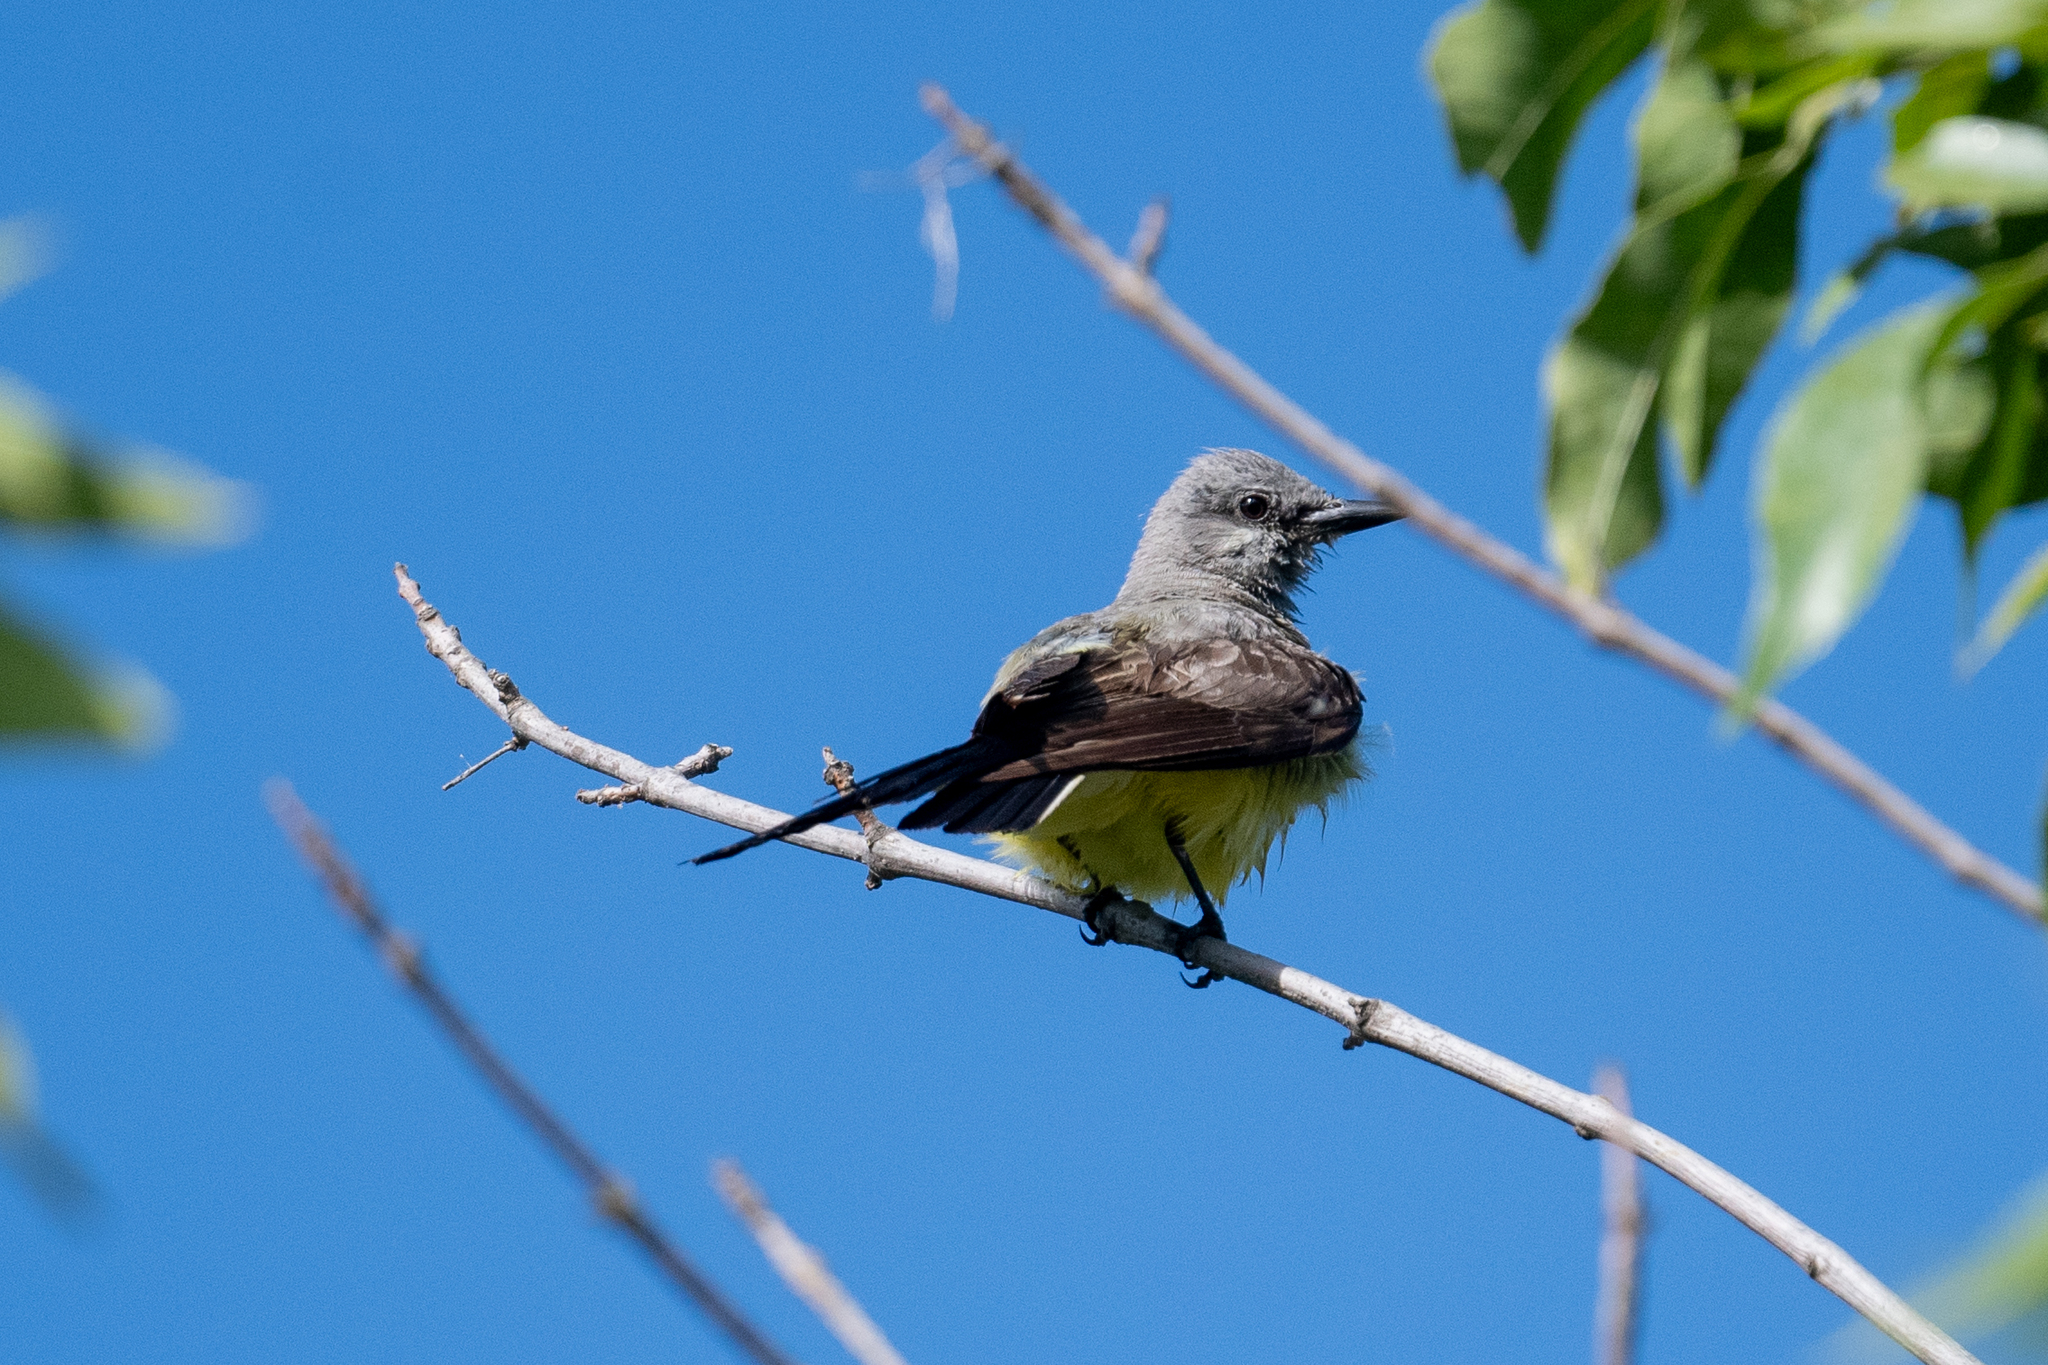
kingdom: Animalia
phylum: Chordata
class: Aves
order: Passeriformes
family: Tyrannidae
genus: Tyrannus
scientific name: Tyrannus verticalis
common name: Western kingbird
